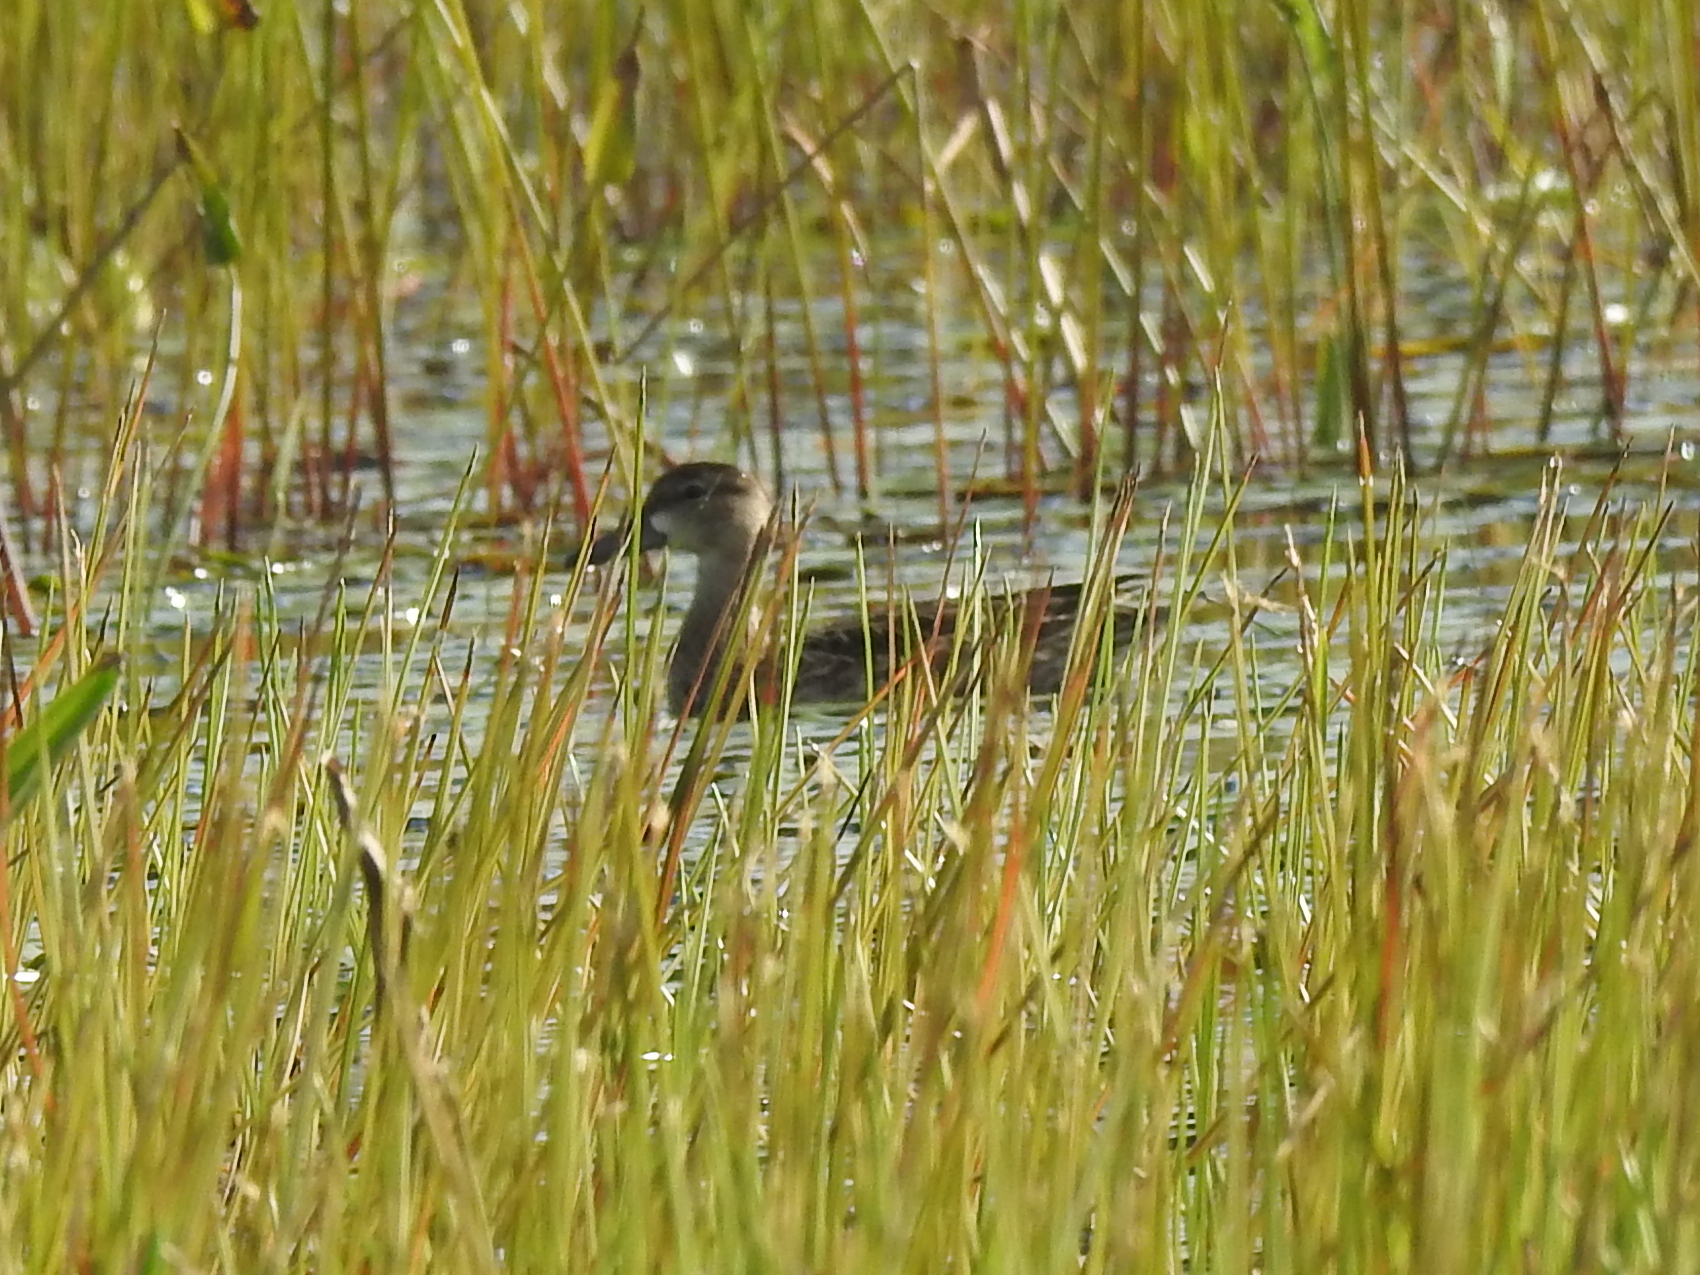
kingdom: Animalia
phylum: Chordata
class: Aves
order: Anseriformes
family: Anatidae
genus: Spatula
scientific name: Spatula discors
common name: Blue-winged teal
